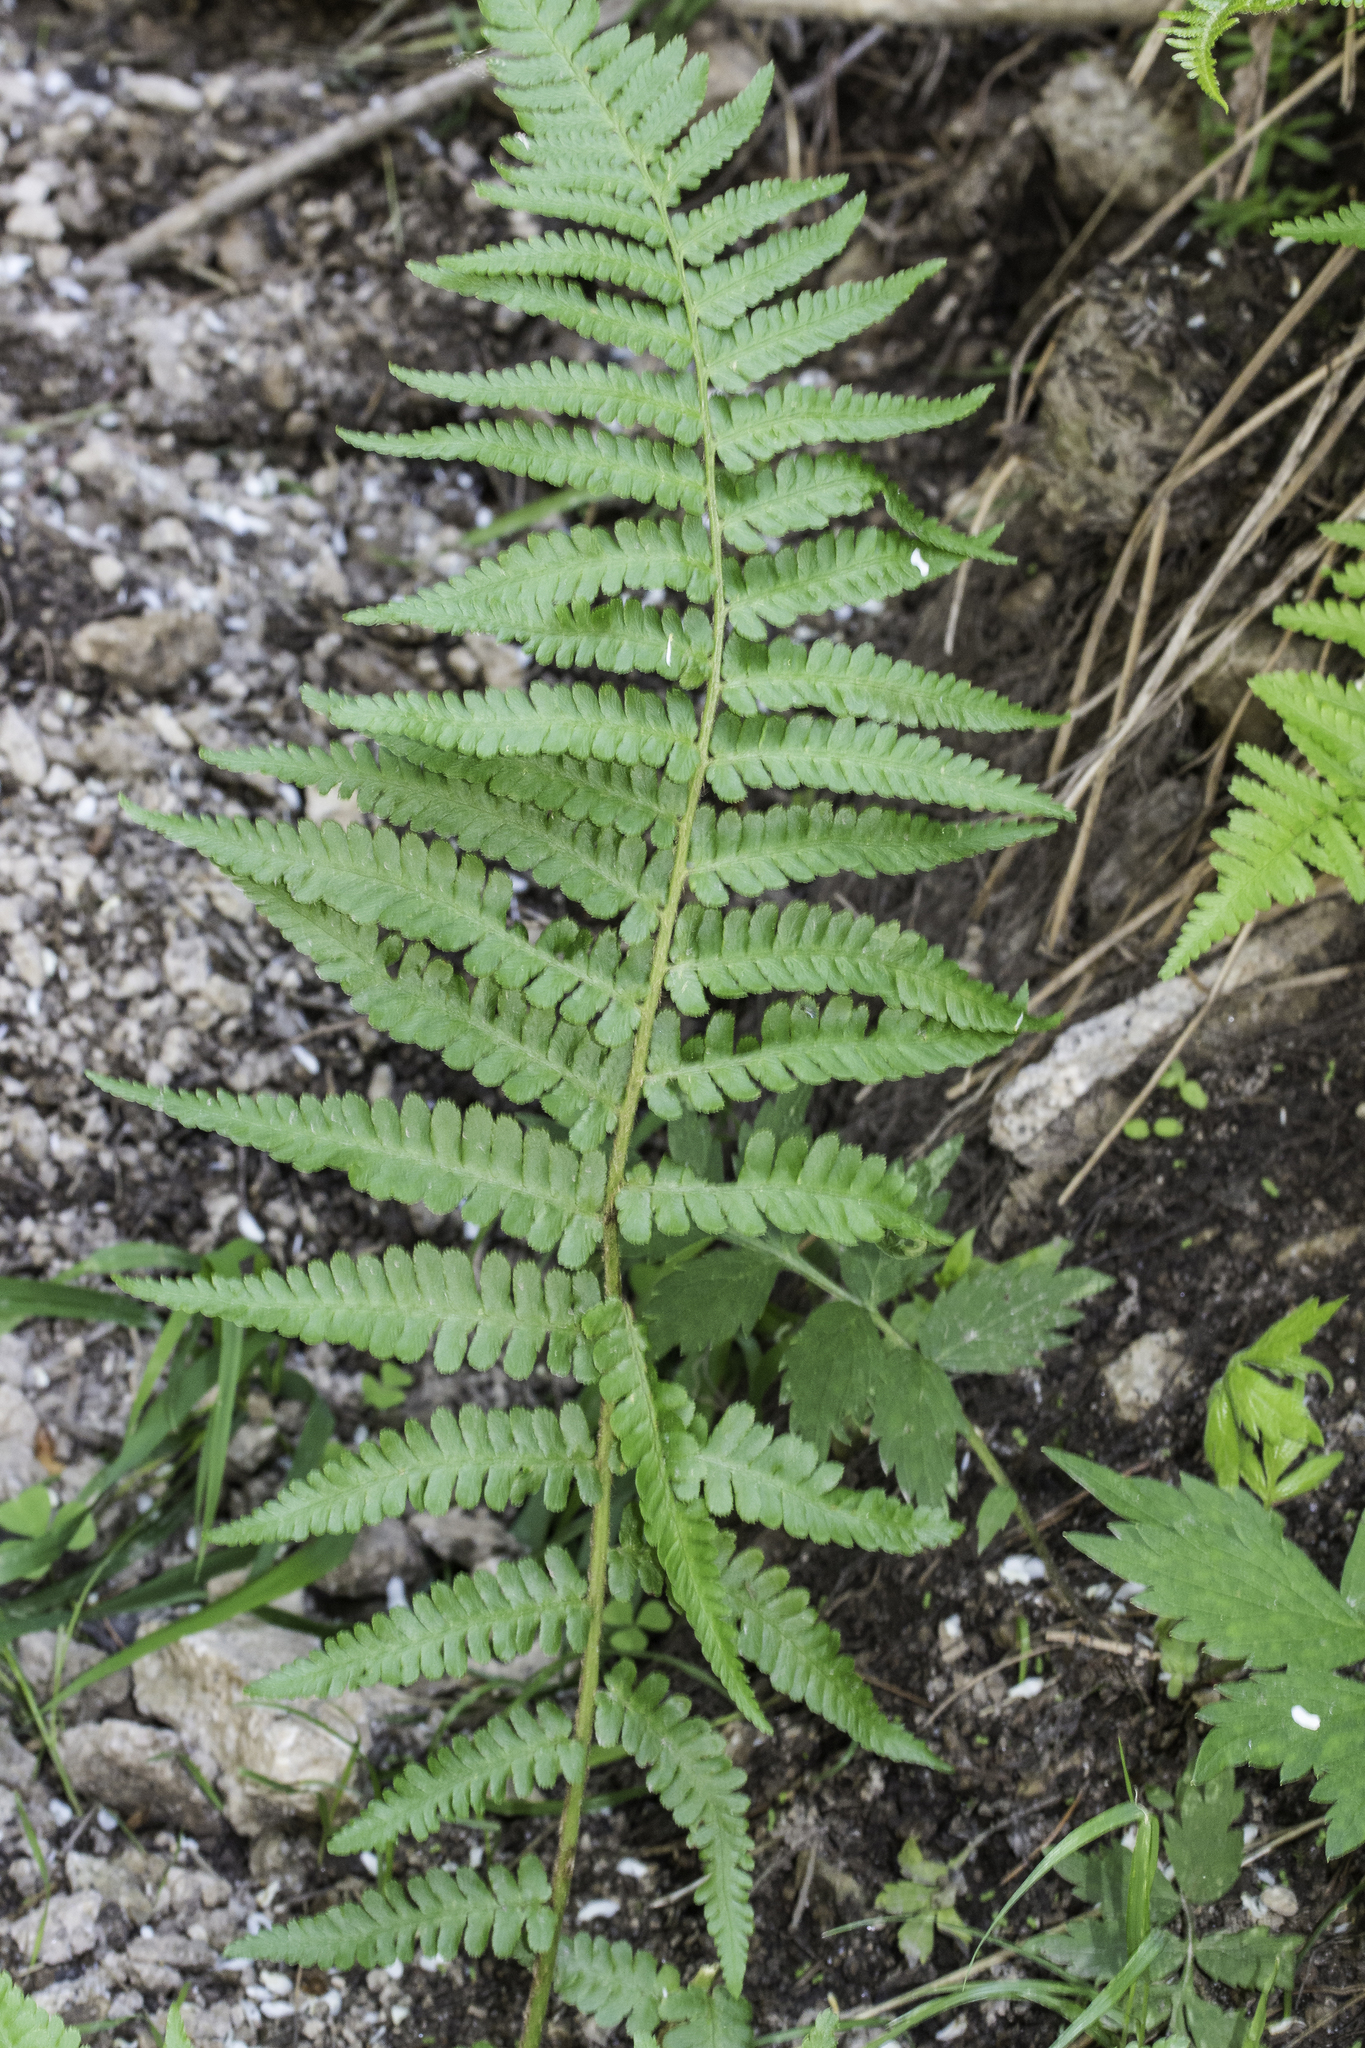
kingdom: Plantae
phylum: Tracheophyta
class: Polypodiopsida
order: Polypodiales
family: Dryopteridaceae
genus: Dryopteris
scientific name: Dryopteris filix-mas
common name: Male fern
